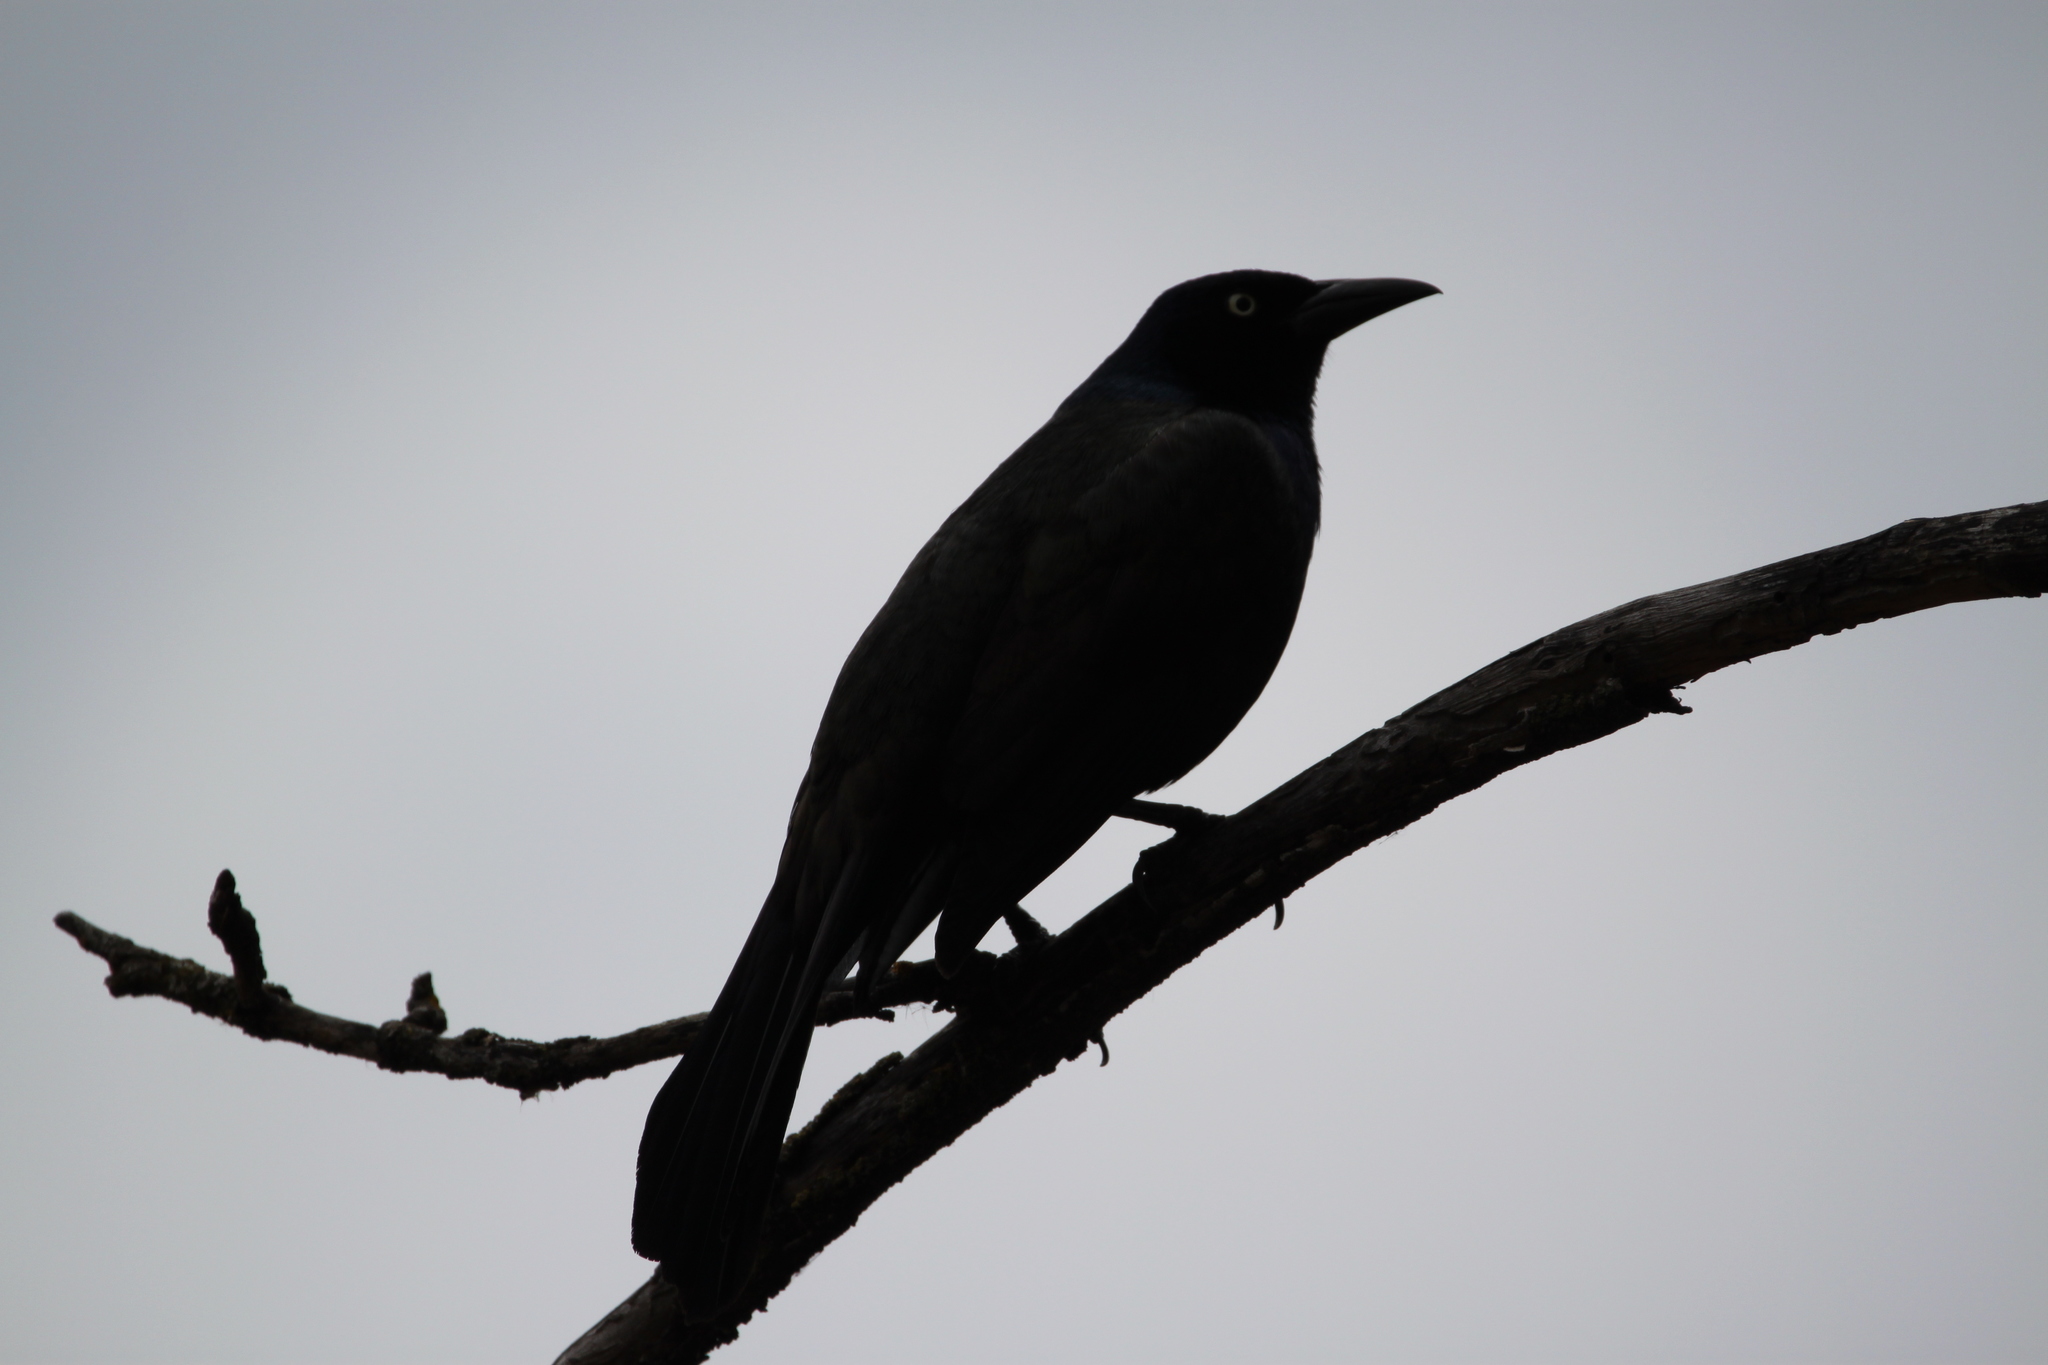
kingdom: Animalia
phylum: Chordata
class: Aves
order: Passeriformes
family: Icteridae
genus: Quiscalus
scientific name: Quiscalus quiscula
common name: Common grackle
